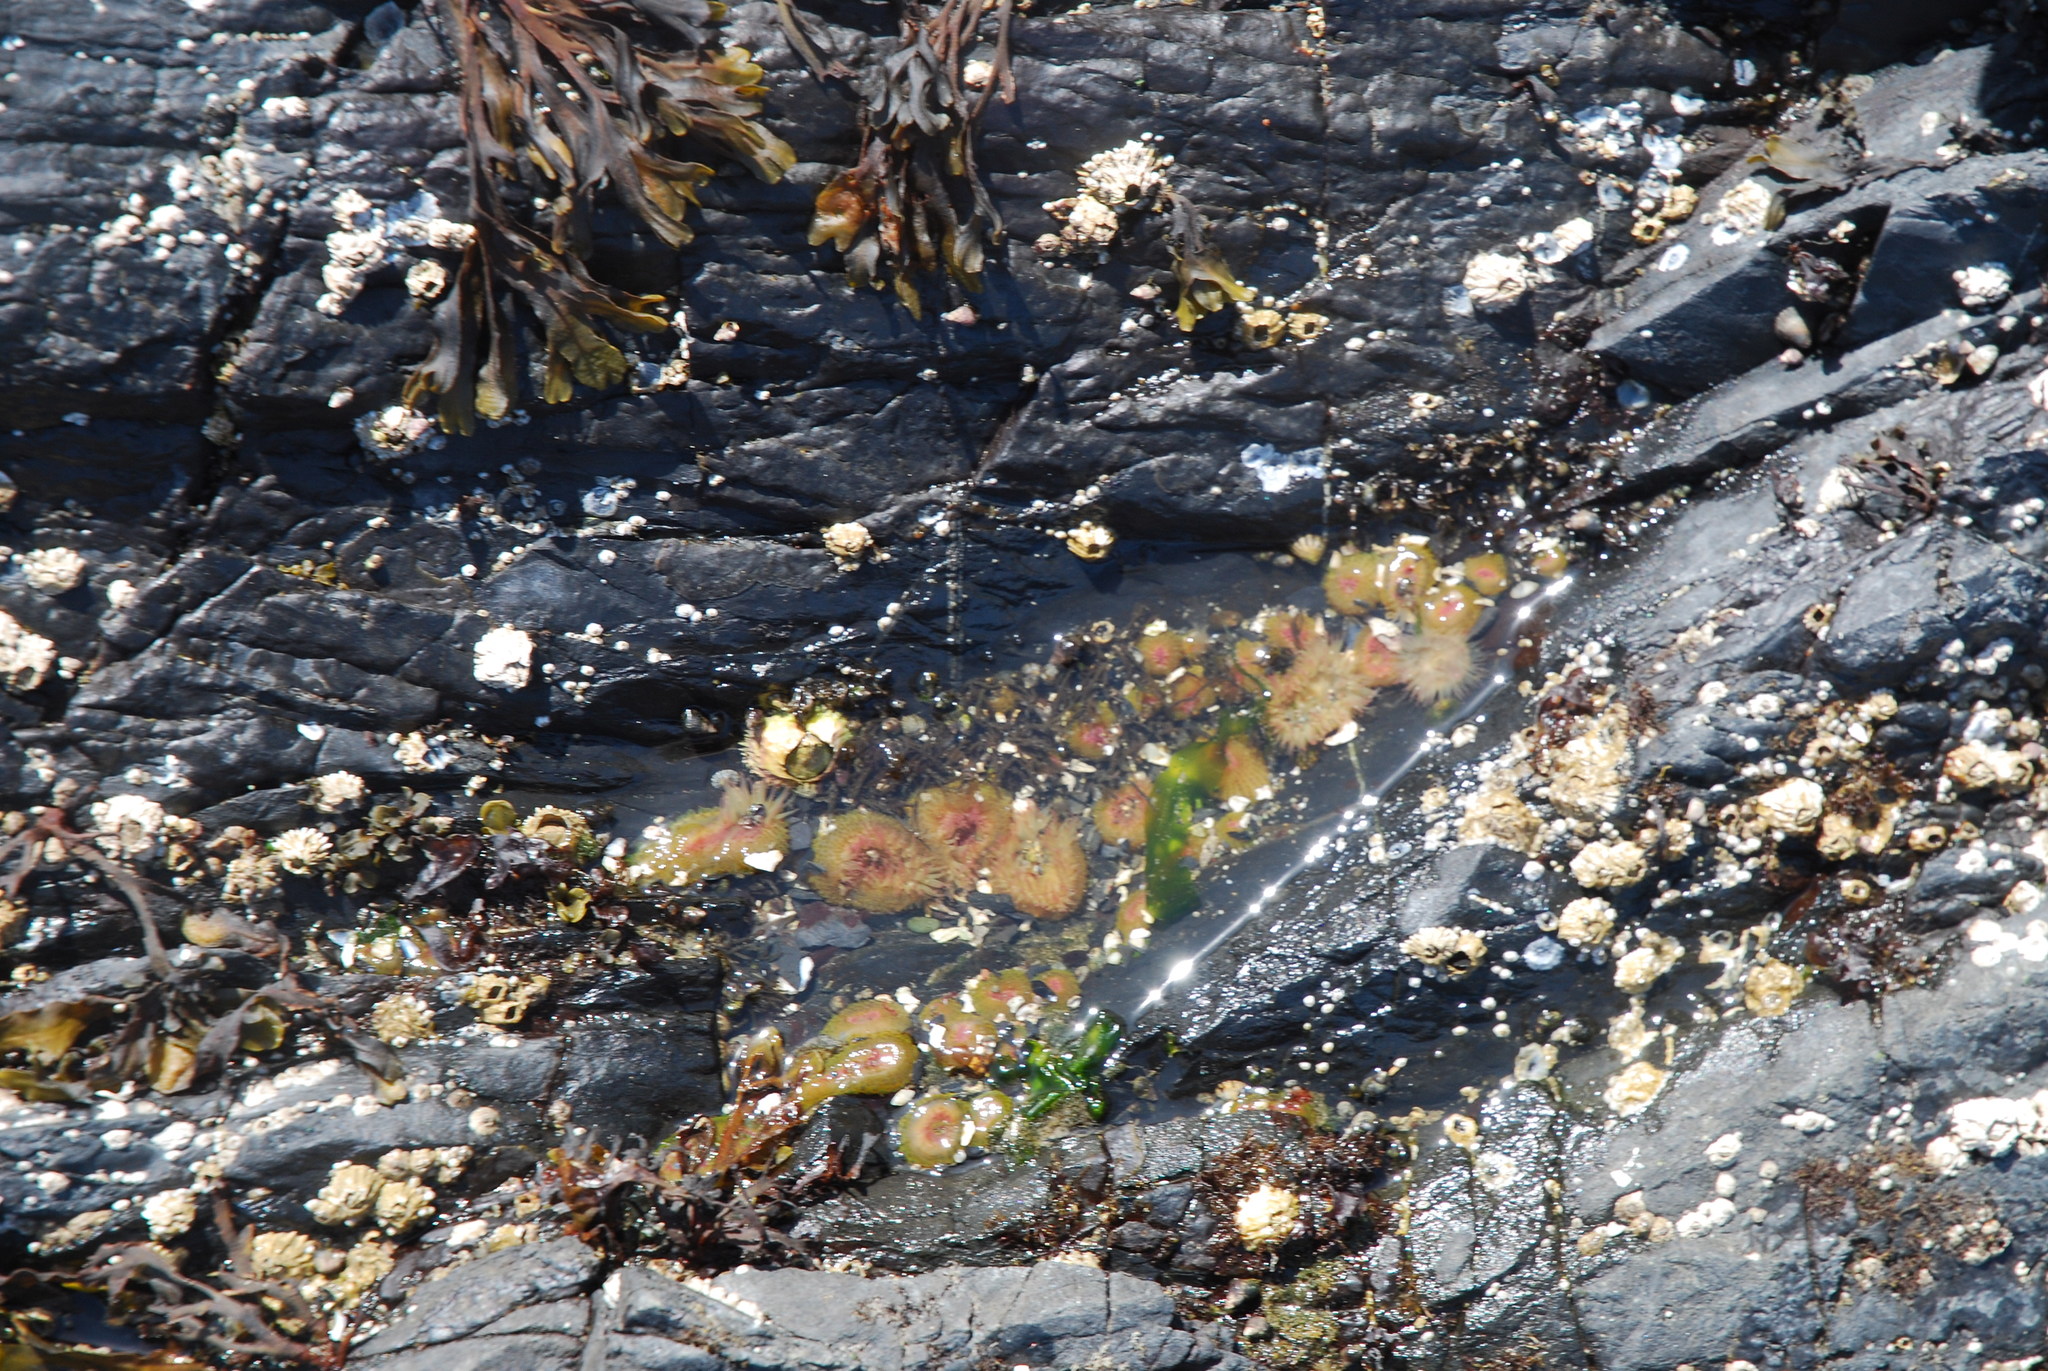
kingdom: Animalia
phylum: Cnidaria
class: Anthozoa
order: Actiniaria
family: Actiniidae
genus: Anthopleura
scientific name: Anthopleura elegantissima
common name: Clonal anemone
